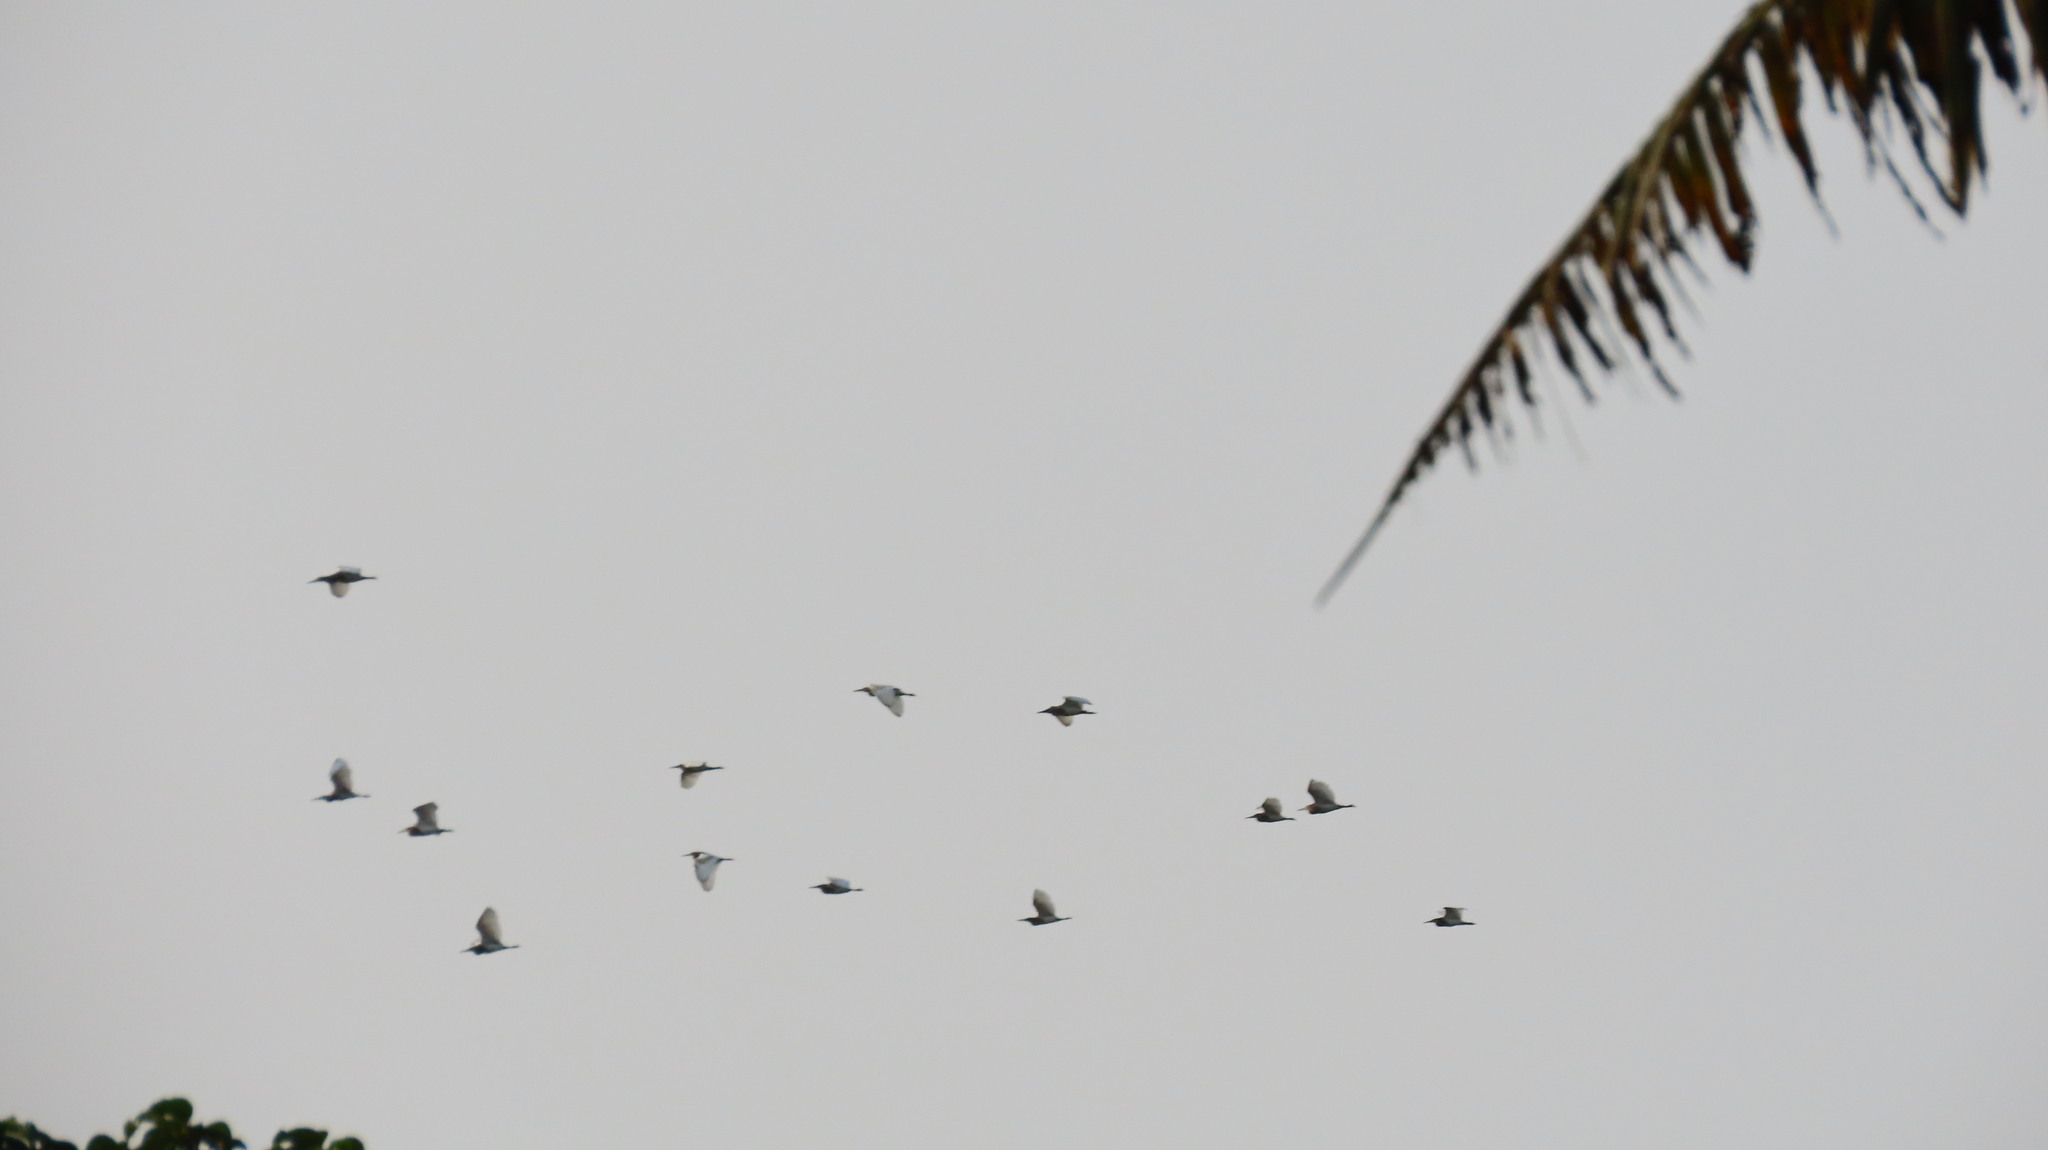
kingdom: Animalia
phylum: Chordata
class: Aves
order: Pelecaniformes
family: Ardeidae
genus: Ardeola
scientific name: Ardeola grayii
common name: Indian pond heron
